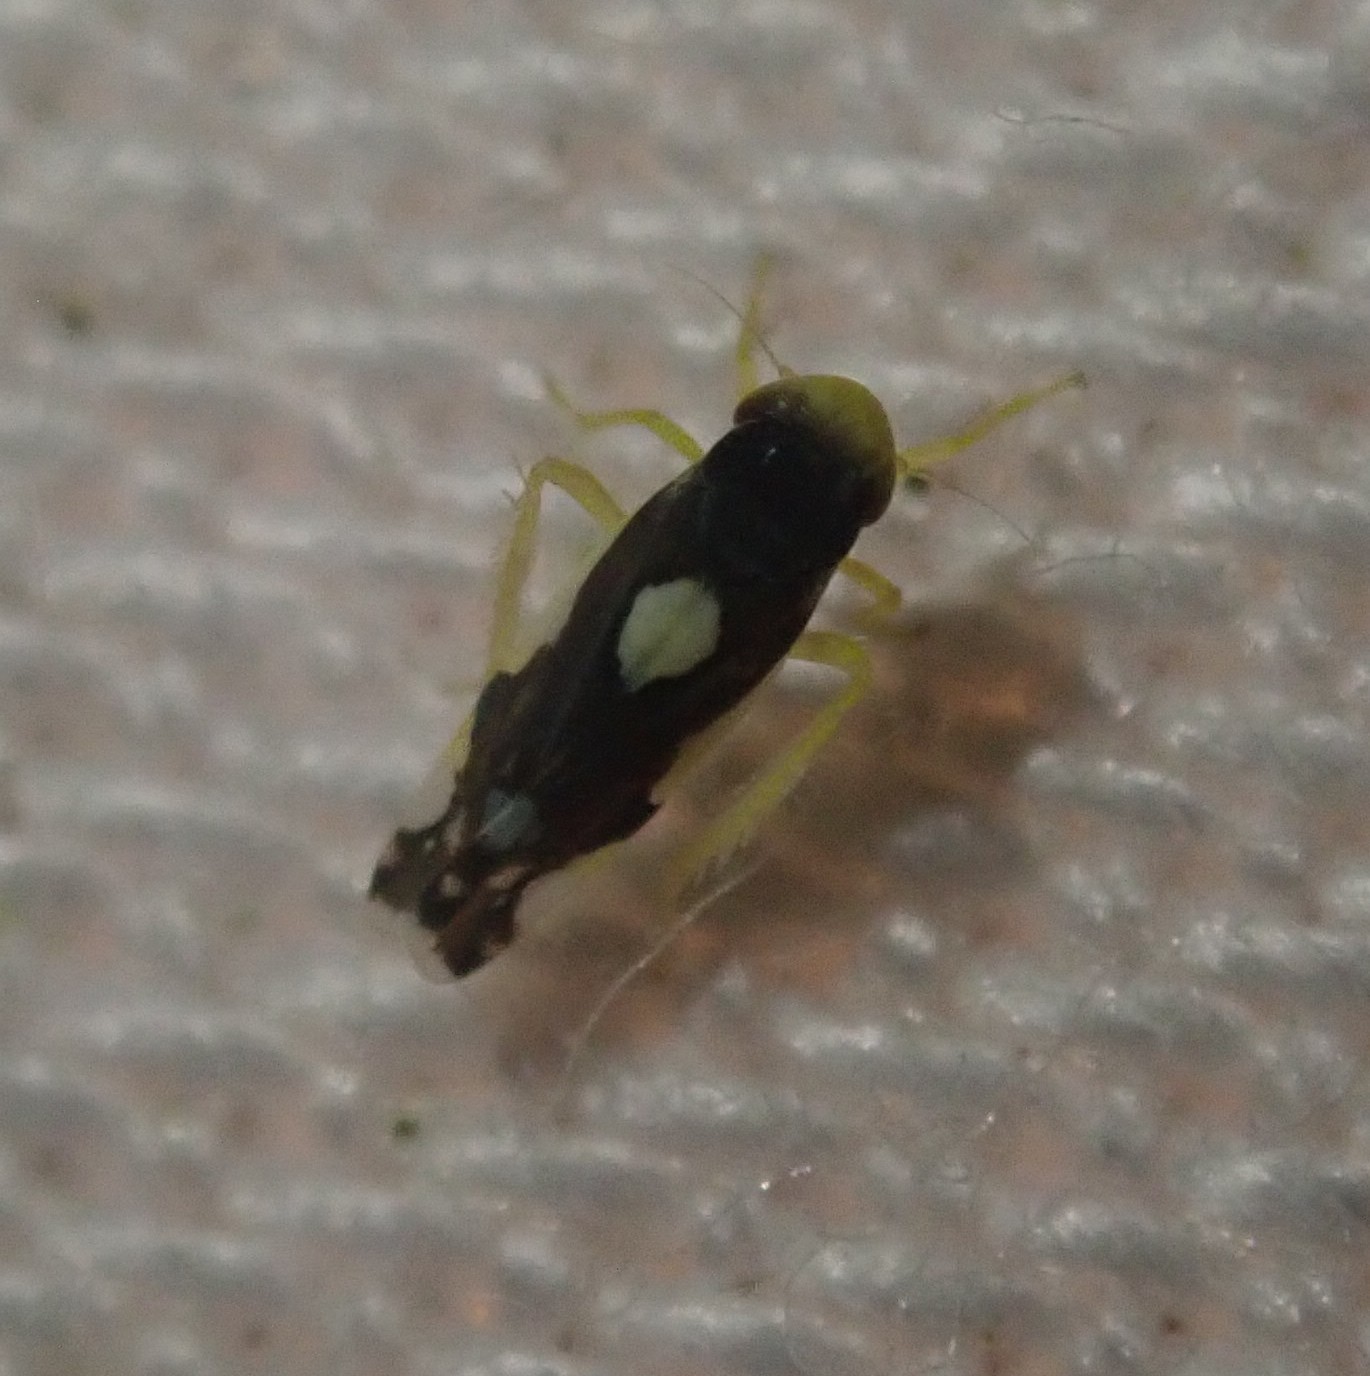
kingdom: Animalia
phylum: Arthropoda
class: Insecta
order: Hemiptera
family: Cicadellidae
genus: Eupteryx
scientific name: Eupteryx vittata
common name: Leafhopper
